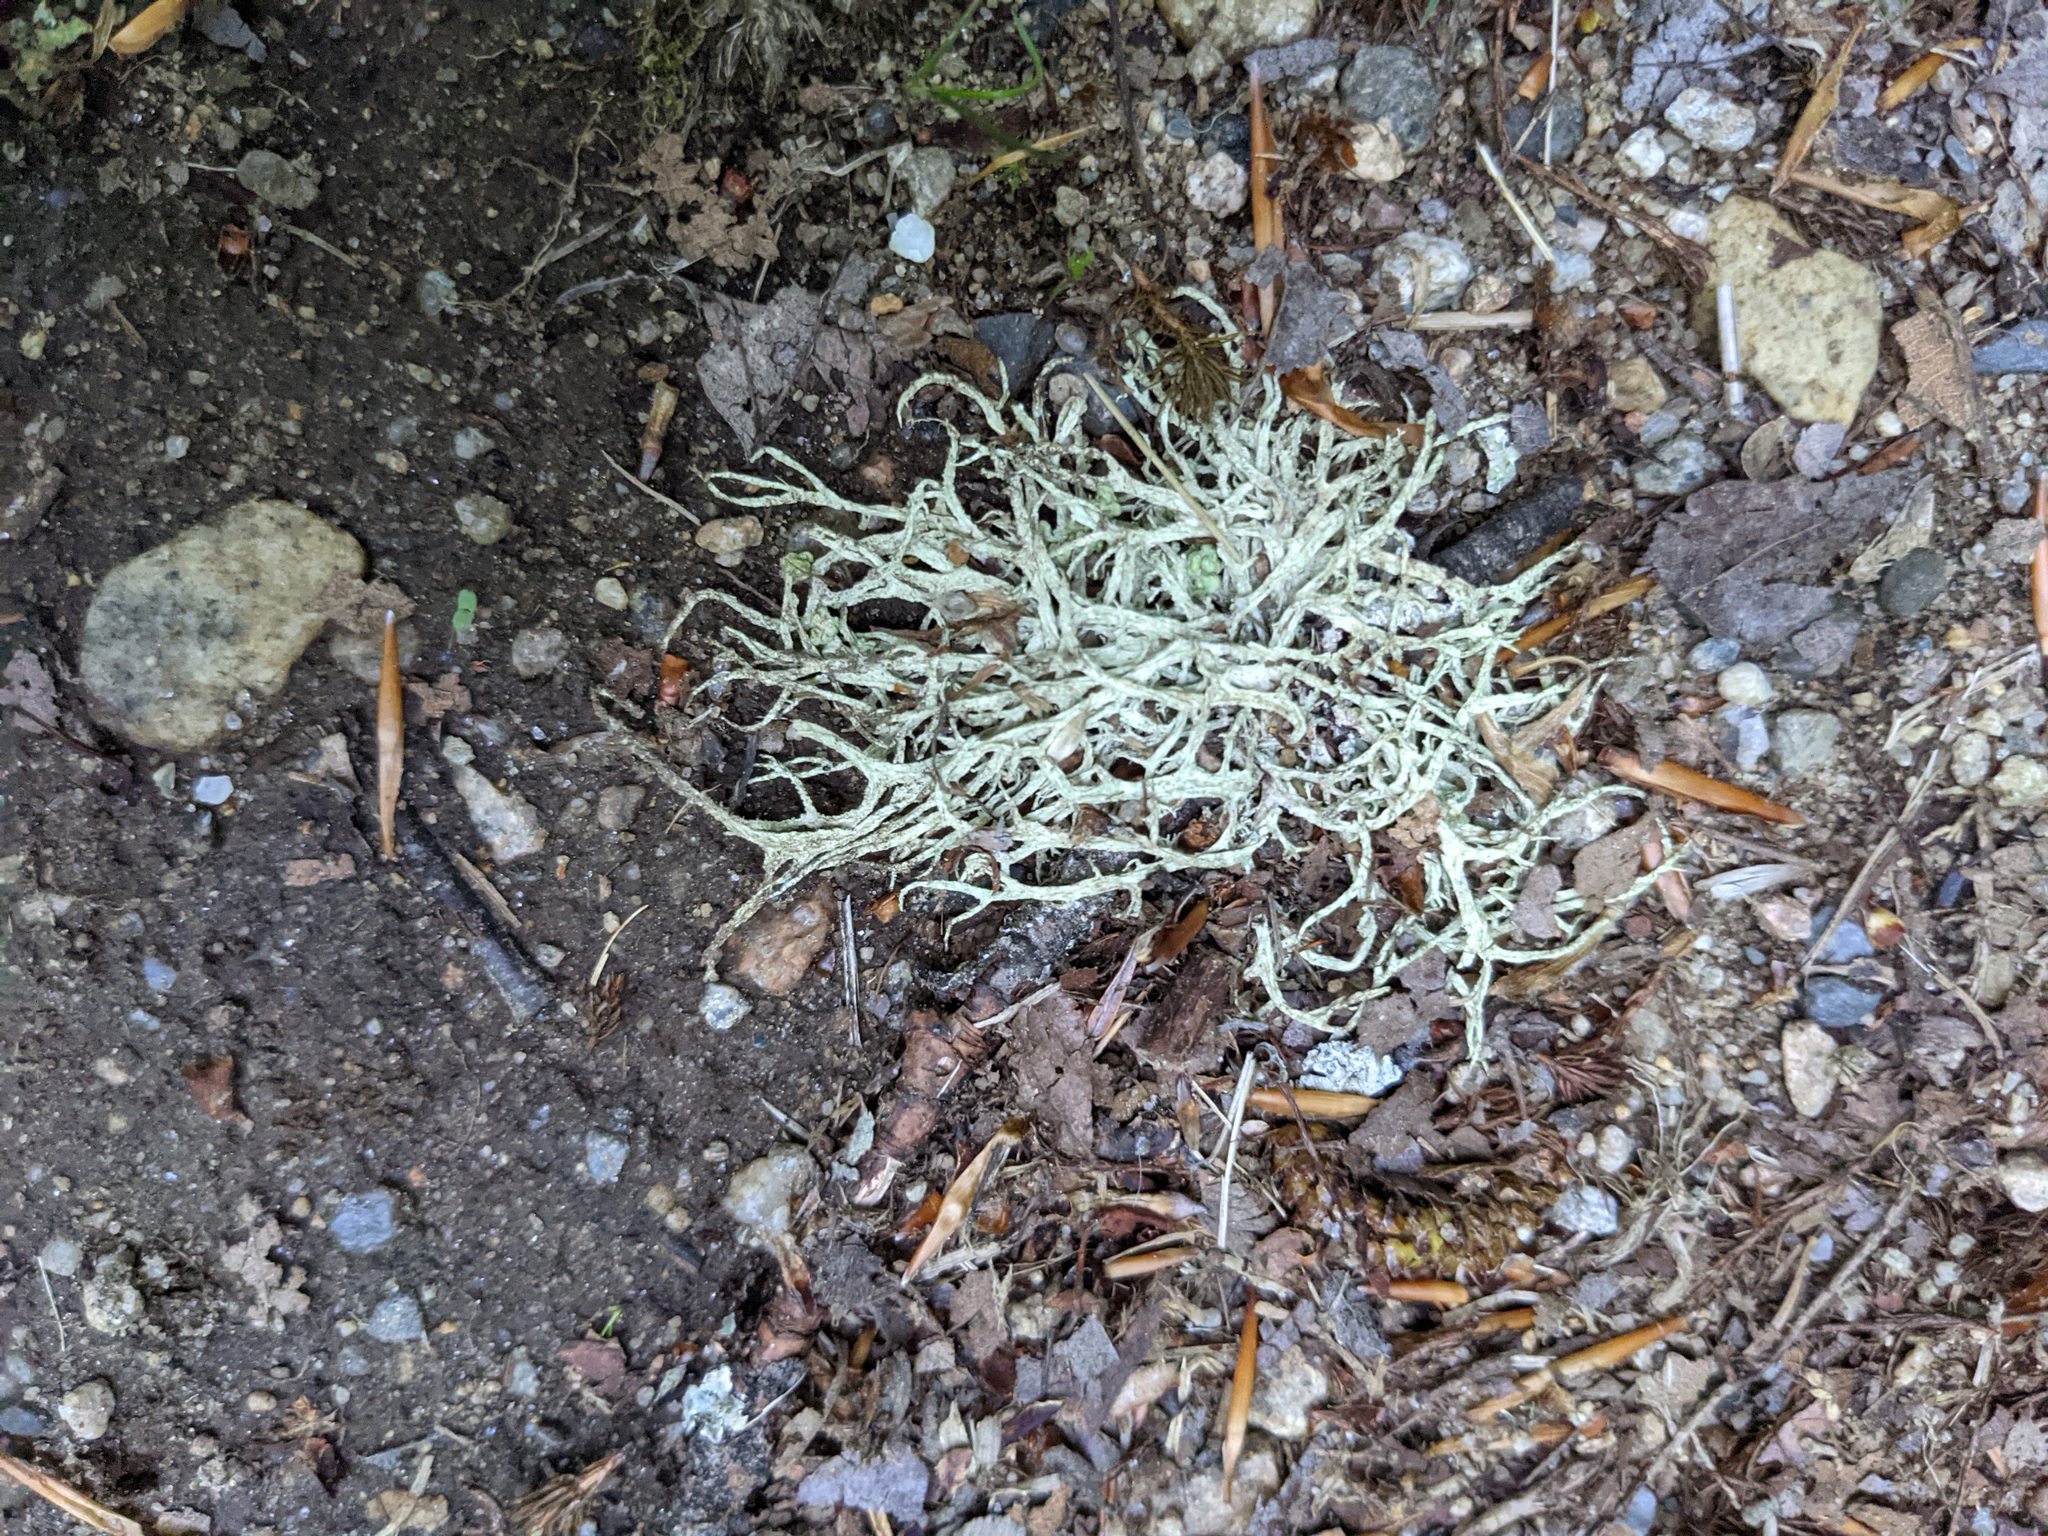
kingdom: Fungi
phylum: Ascomycota
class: Lecanoromycetes
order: Lecanorales
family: Parmeliaceae
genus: Evernia
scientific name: Evernia mesomorpha
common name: Boreal oak moss lichen
